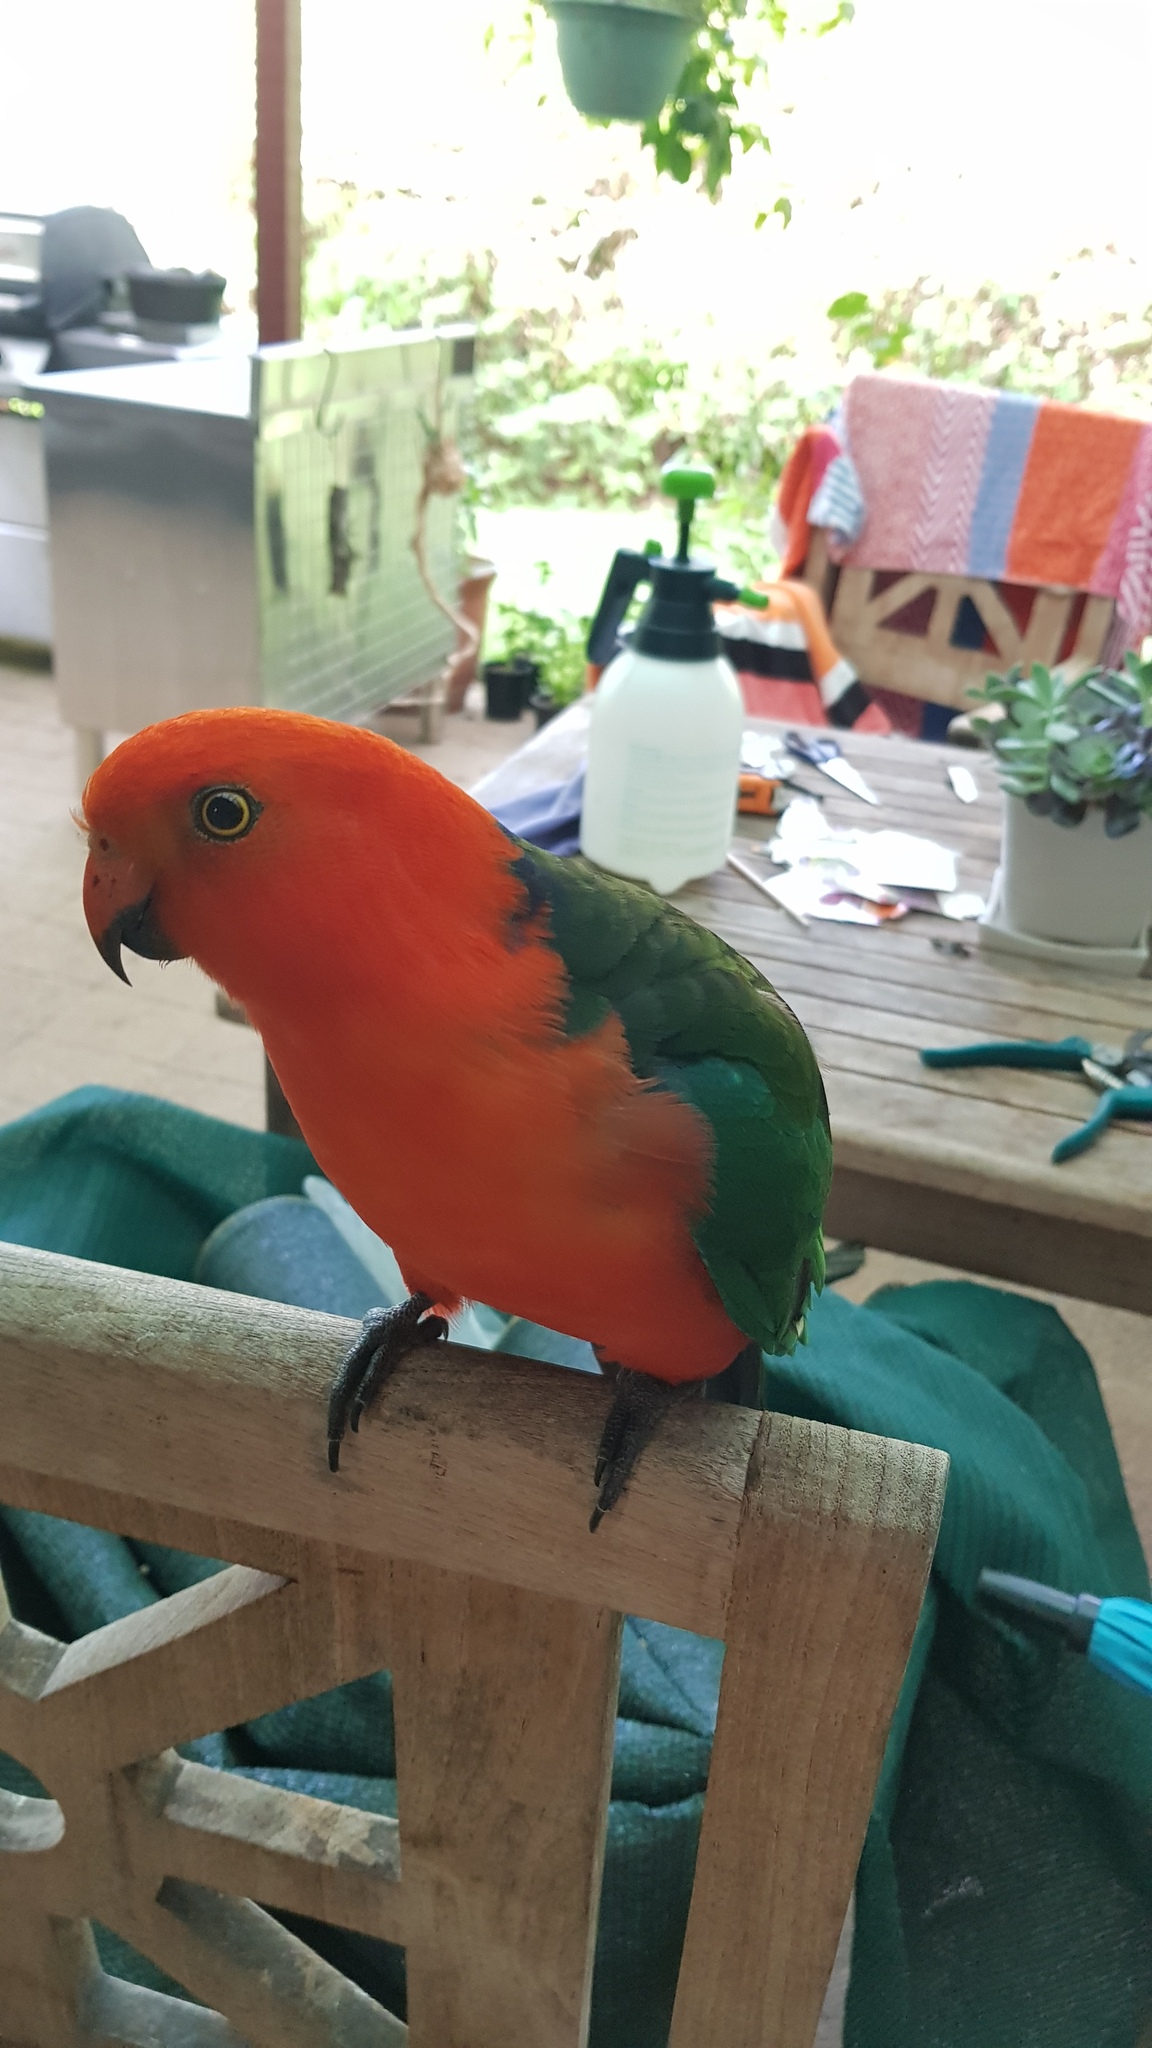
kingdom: Animalia
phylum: Chordata
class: Aves
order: Psittaciformes
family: Psittacidae
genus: Alisterus
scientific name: Alisterus scapularis
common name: Australian king parrot
